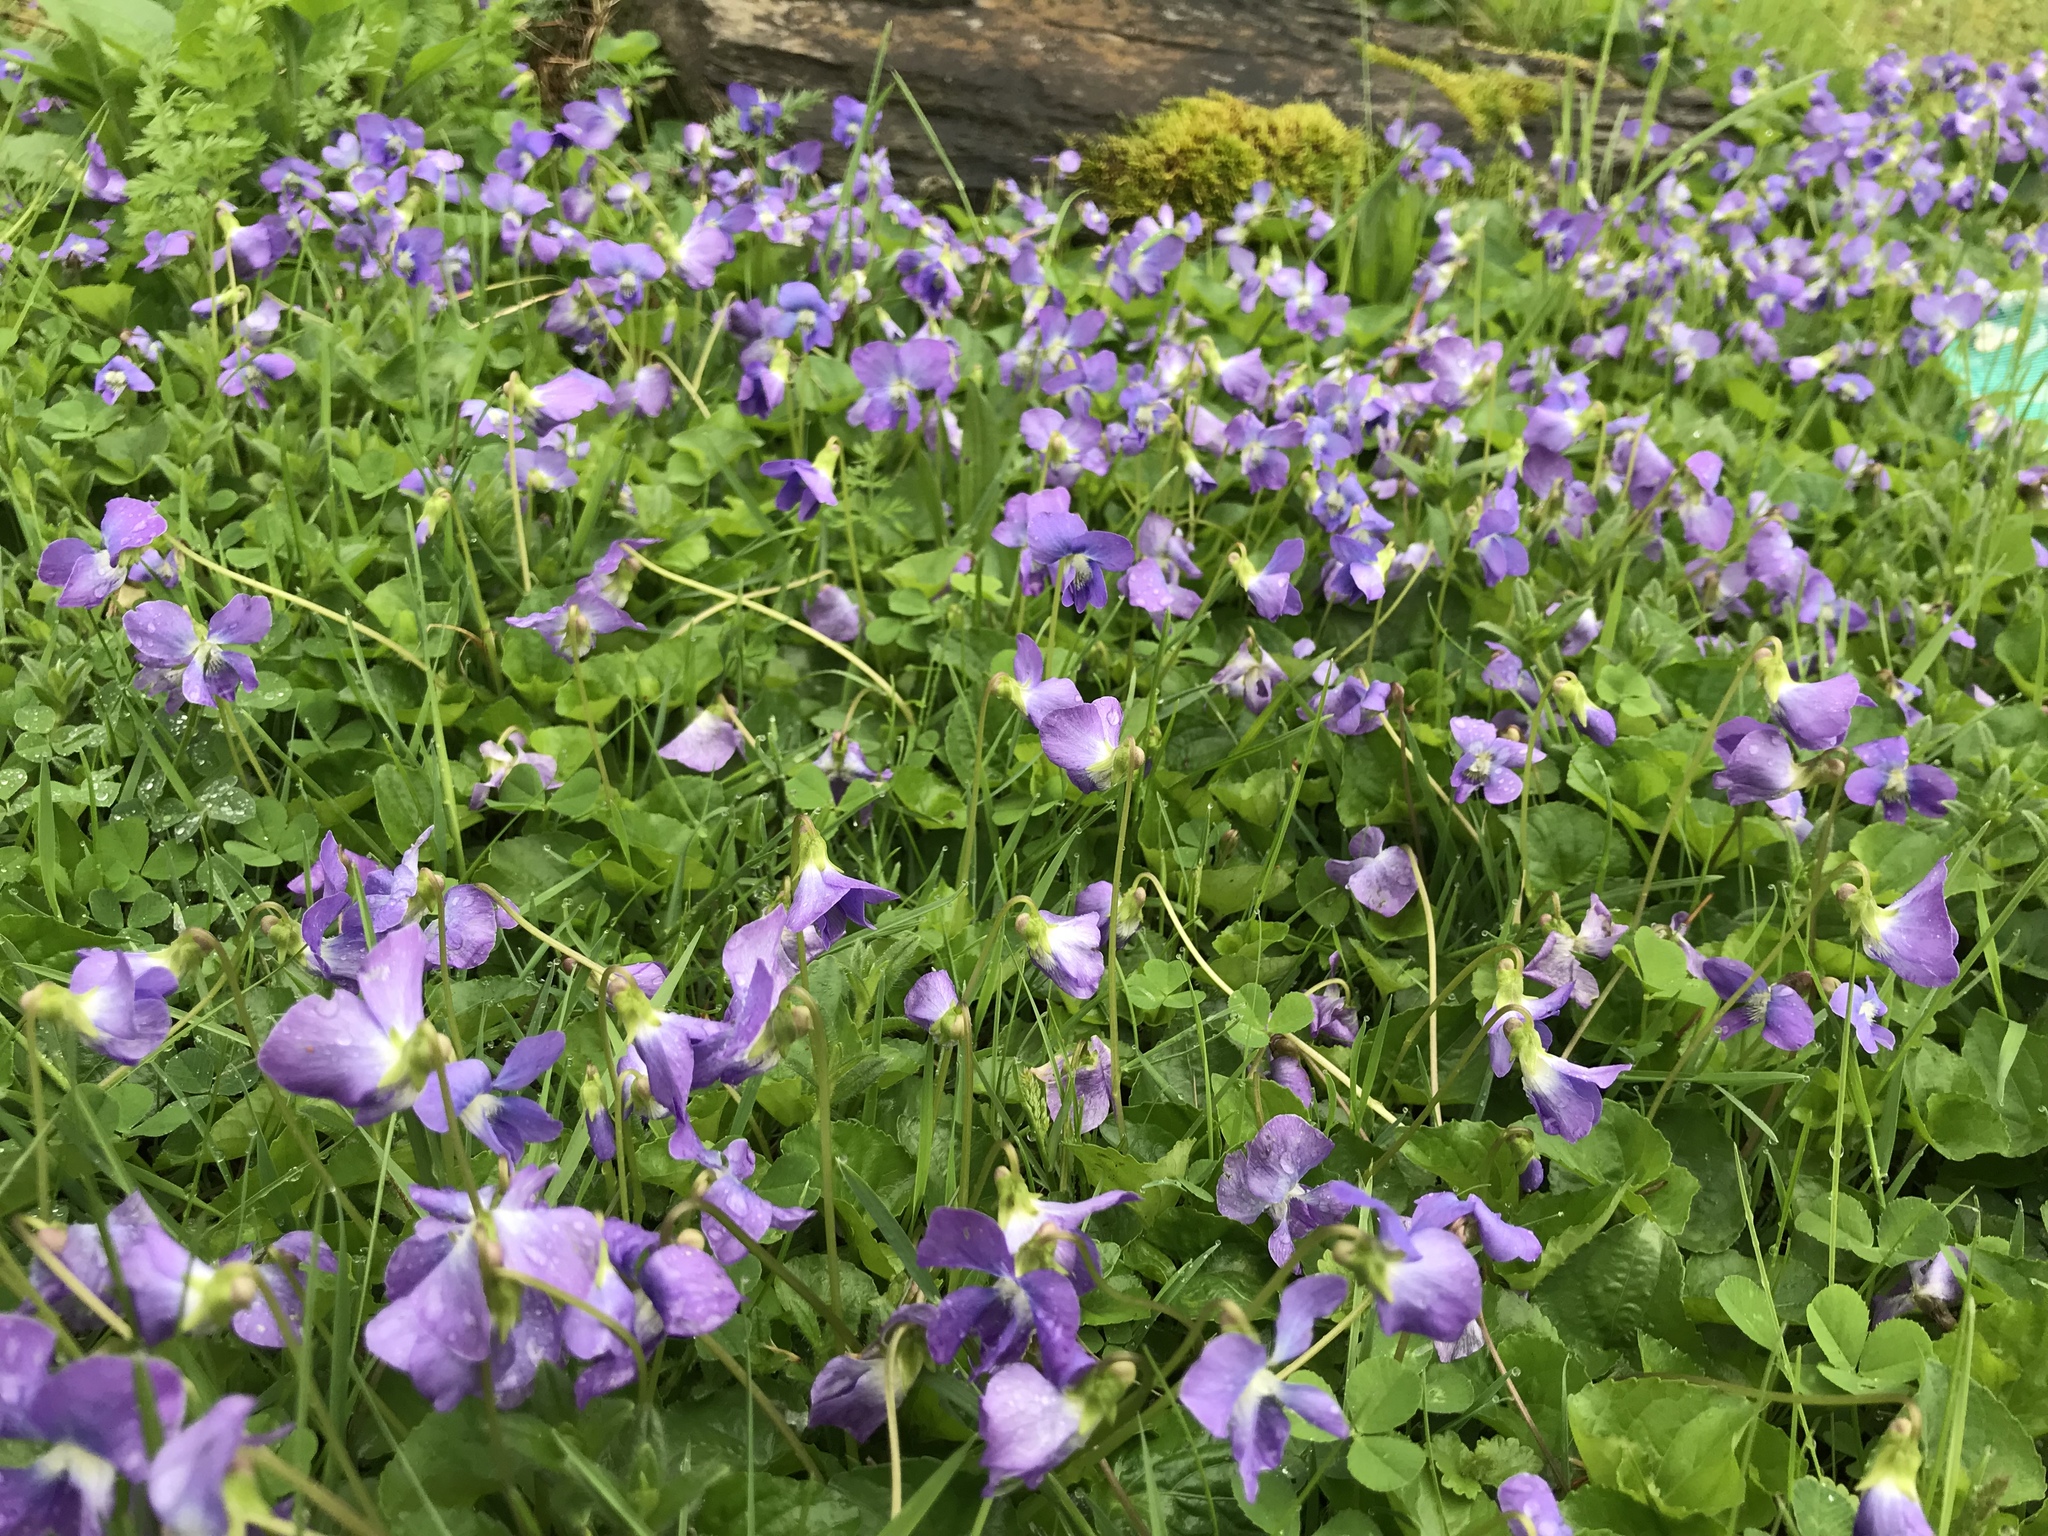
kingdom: Plantae
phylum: Tracheophyta
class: Magnoliopsida
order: Malpighiales
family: Violaceae
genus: Viola
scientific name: Viola sororia
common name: Dooryard violet
